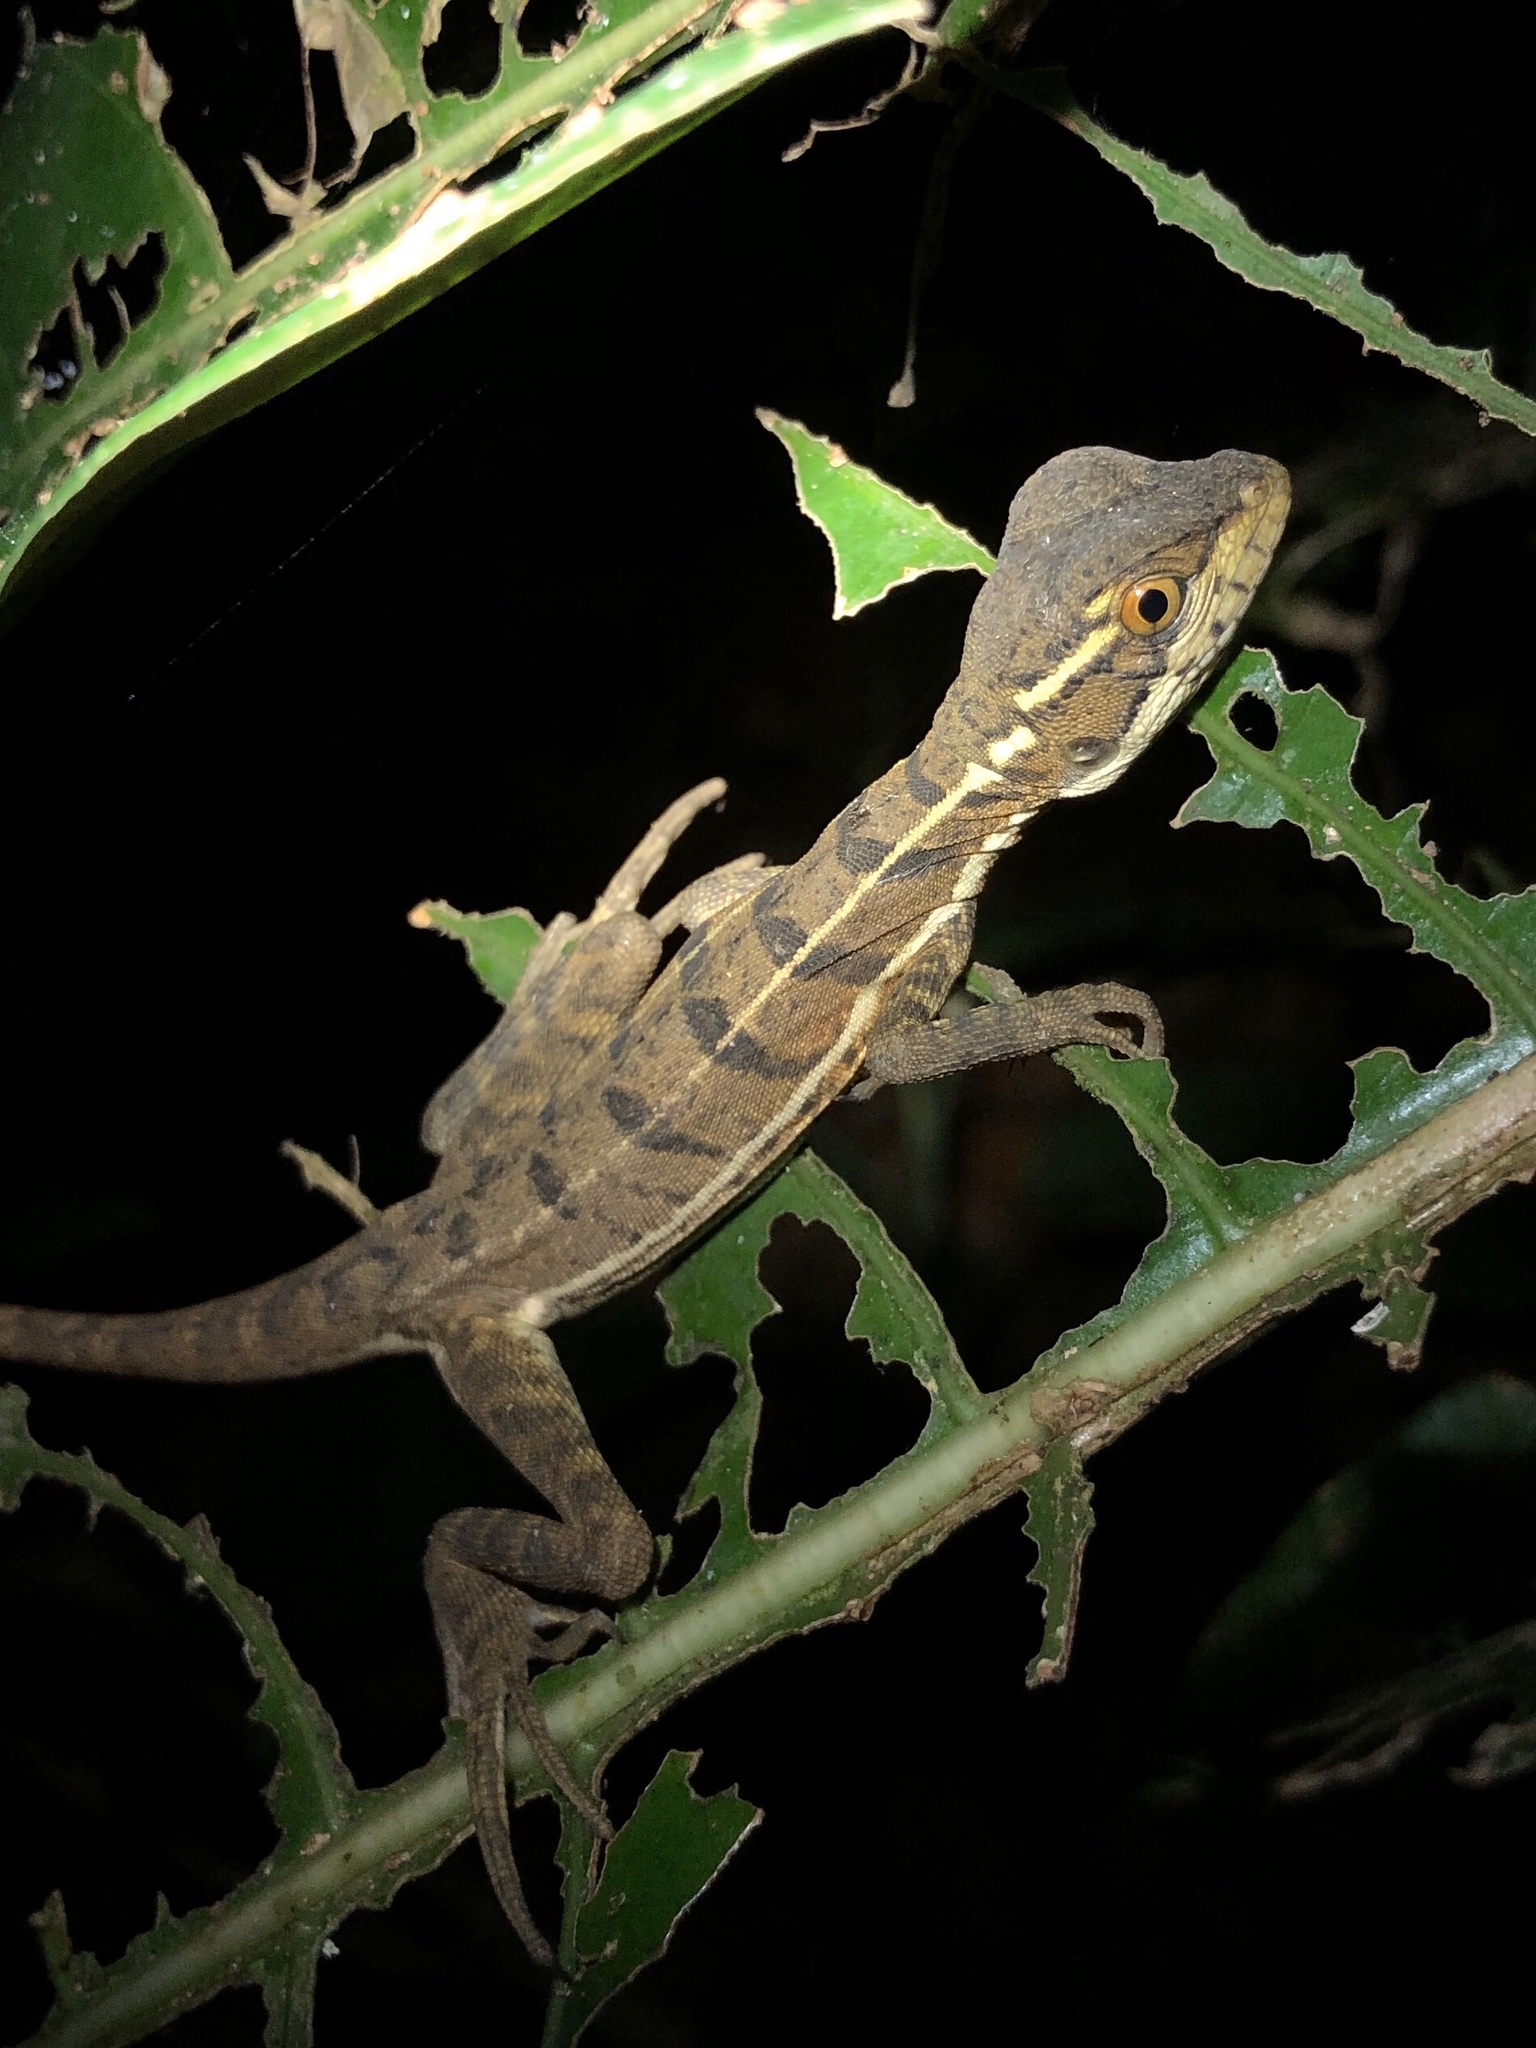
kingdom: Animalia
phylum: Chordata
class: Squamata
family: Corytophanidae
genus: Basiliscus
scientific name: Basiliscus basiliscus
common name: Common basilisk
